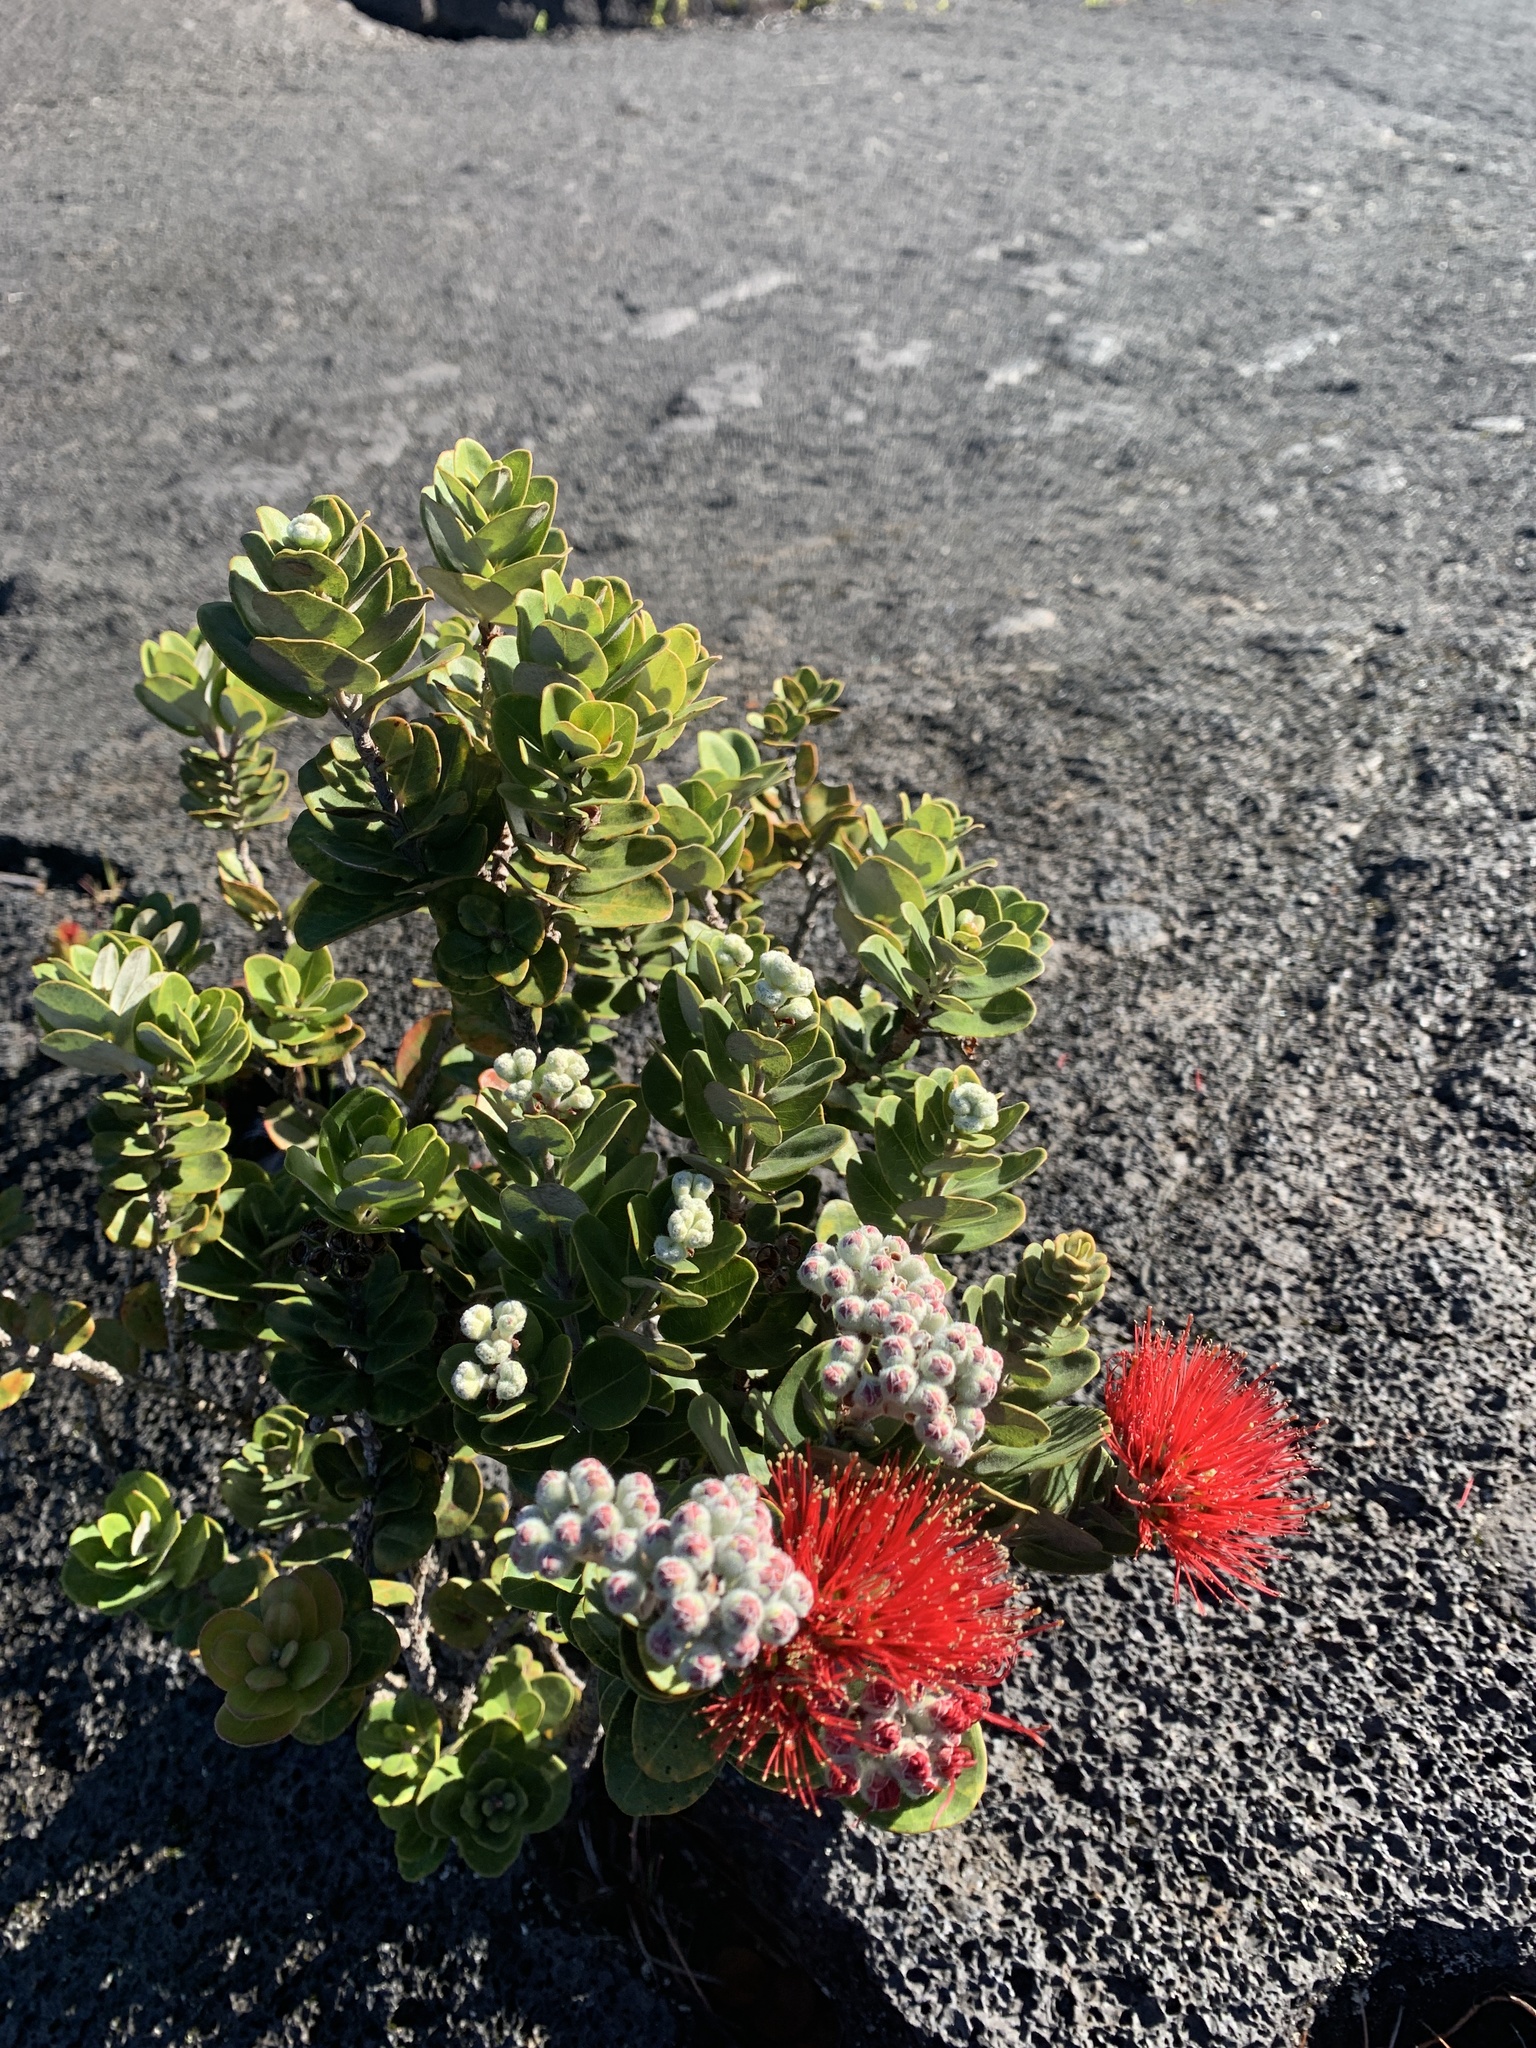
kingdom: Plantae
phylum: Tracheophyta
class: Magnoliopsida
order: Myrtales
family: Myrtaceae
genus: Metrosideros
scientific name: Metrosideros polymorpha
